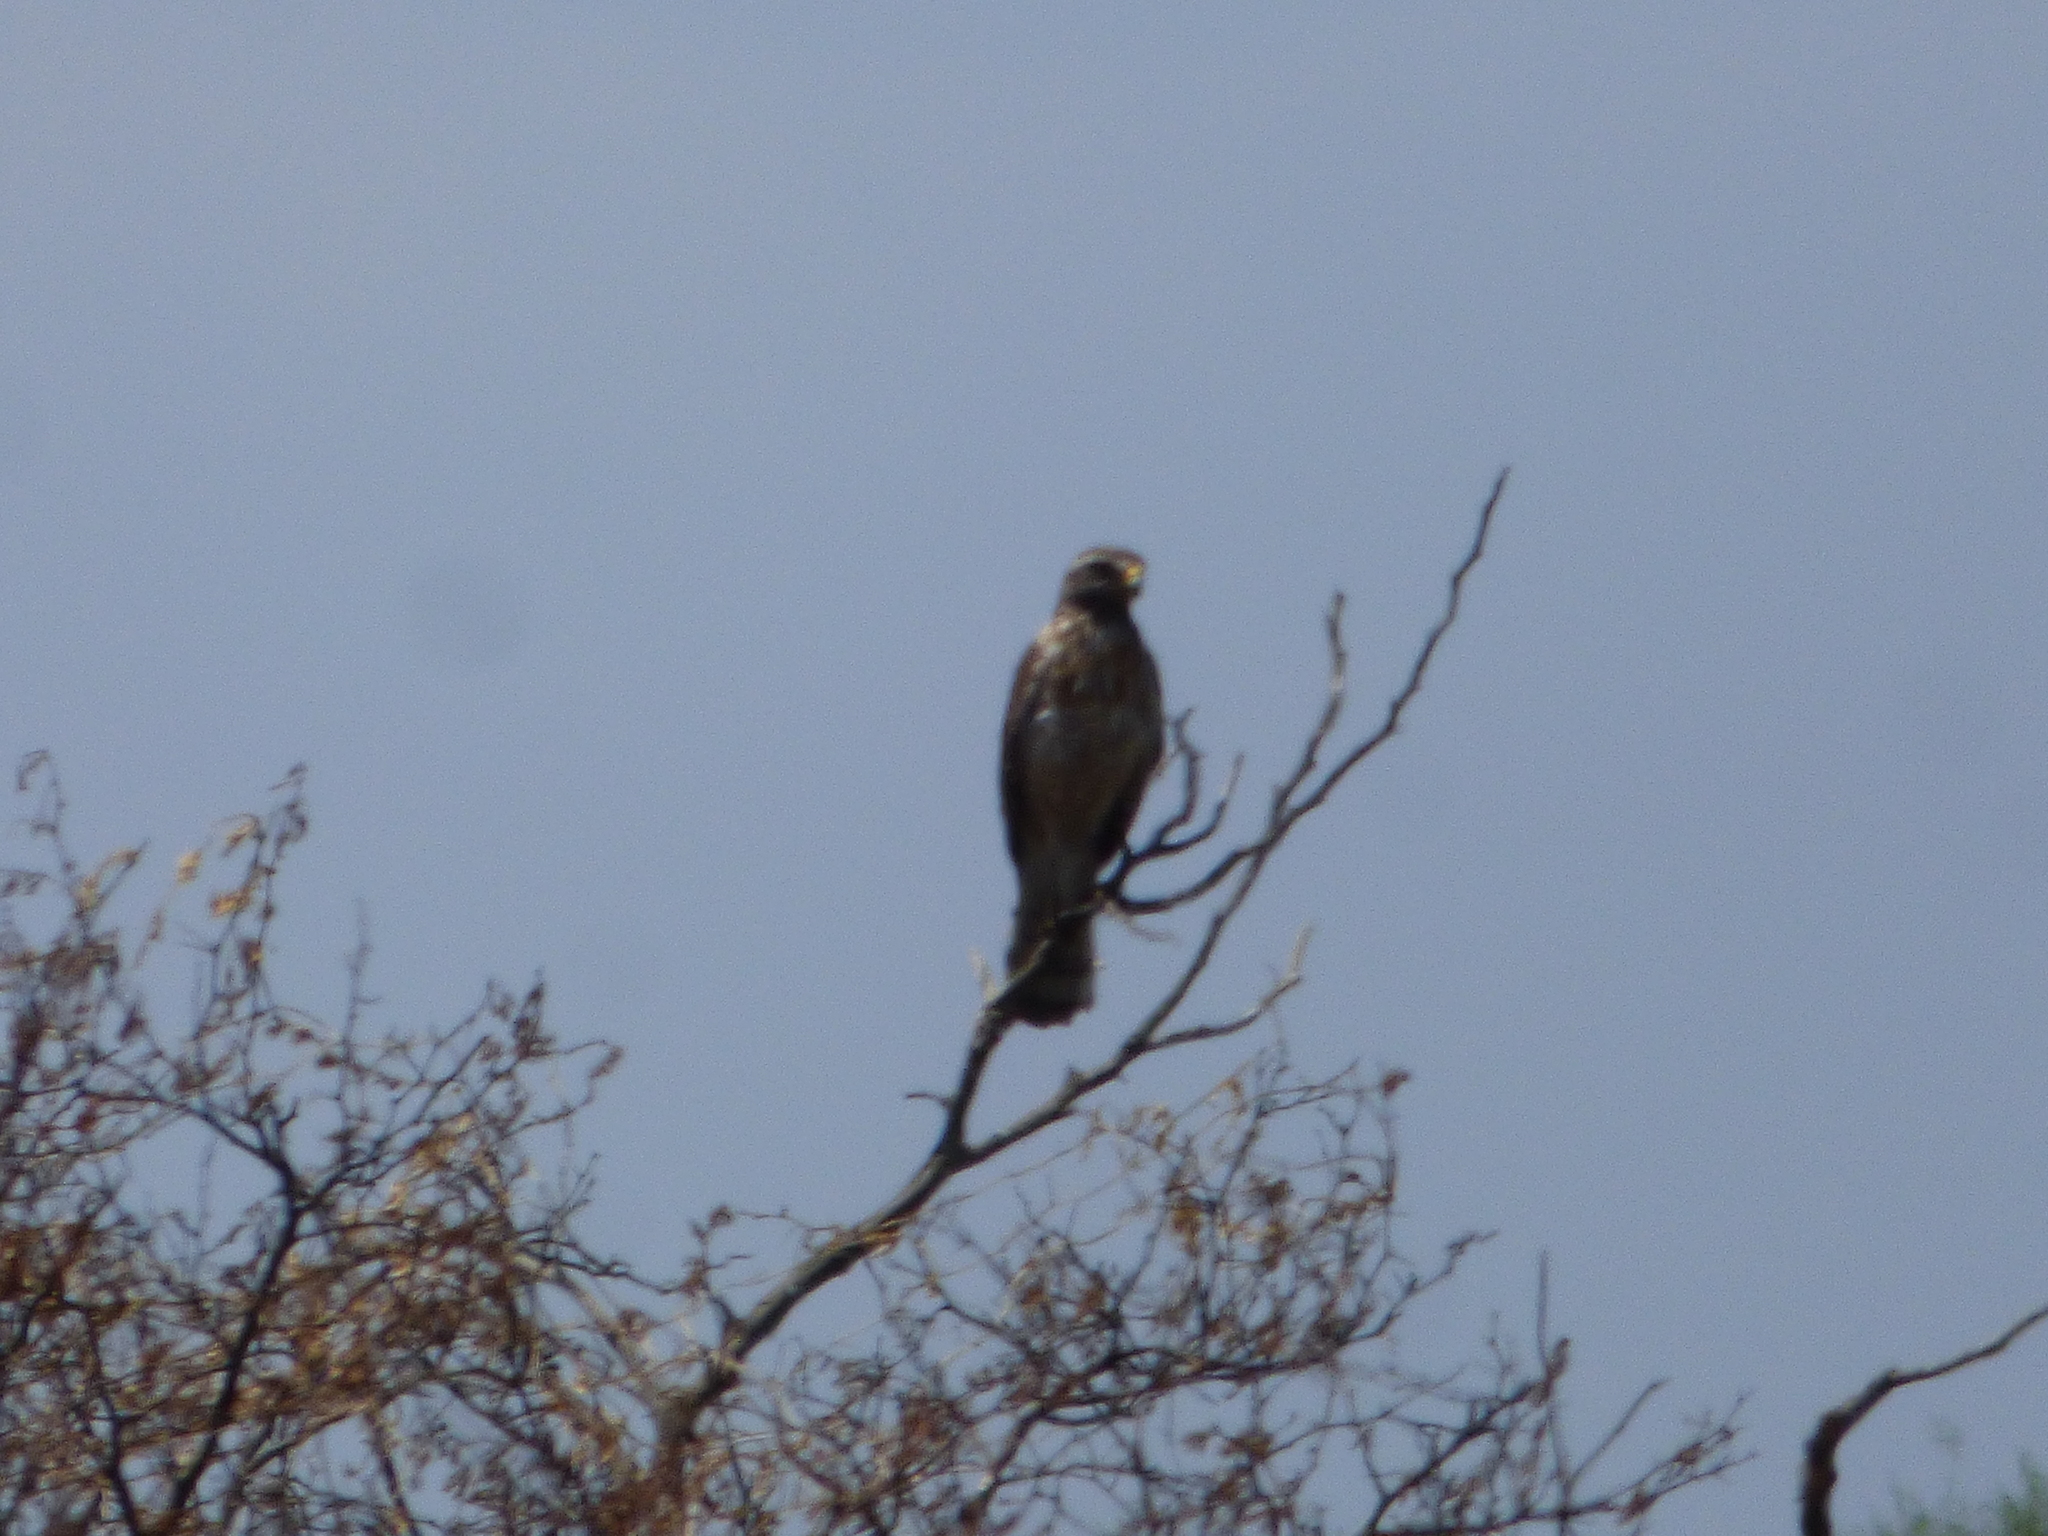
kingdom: Animalia
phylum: Chordata
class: Aves
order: Accipitriformes
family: Accipitridae
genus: Rupornis
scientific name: Rupornis magnirostris
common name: Roadside hawk
